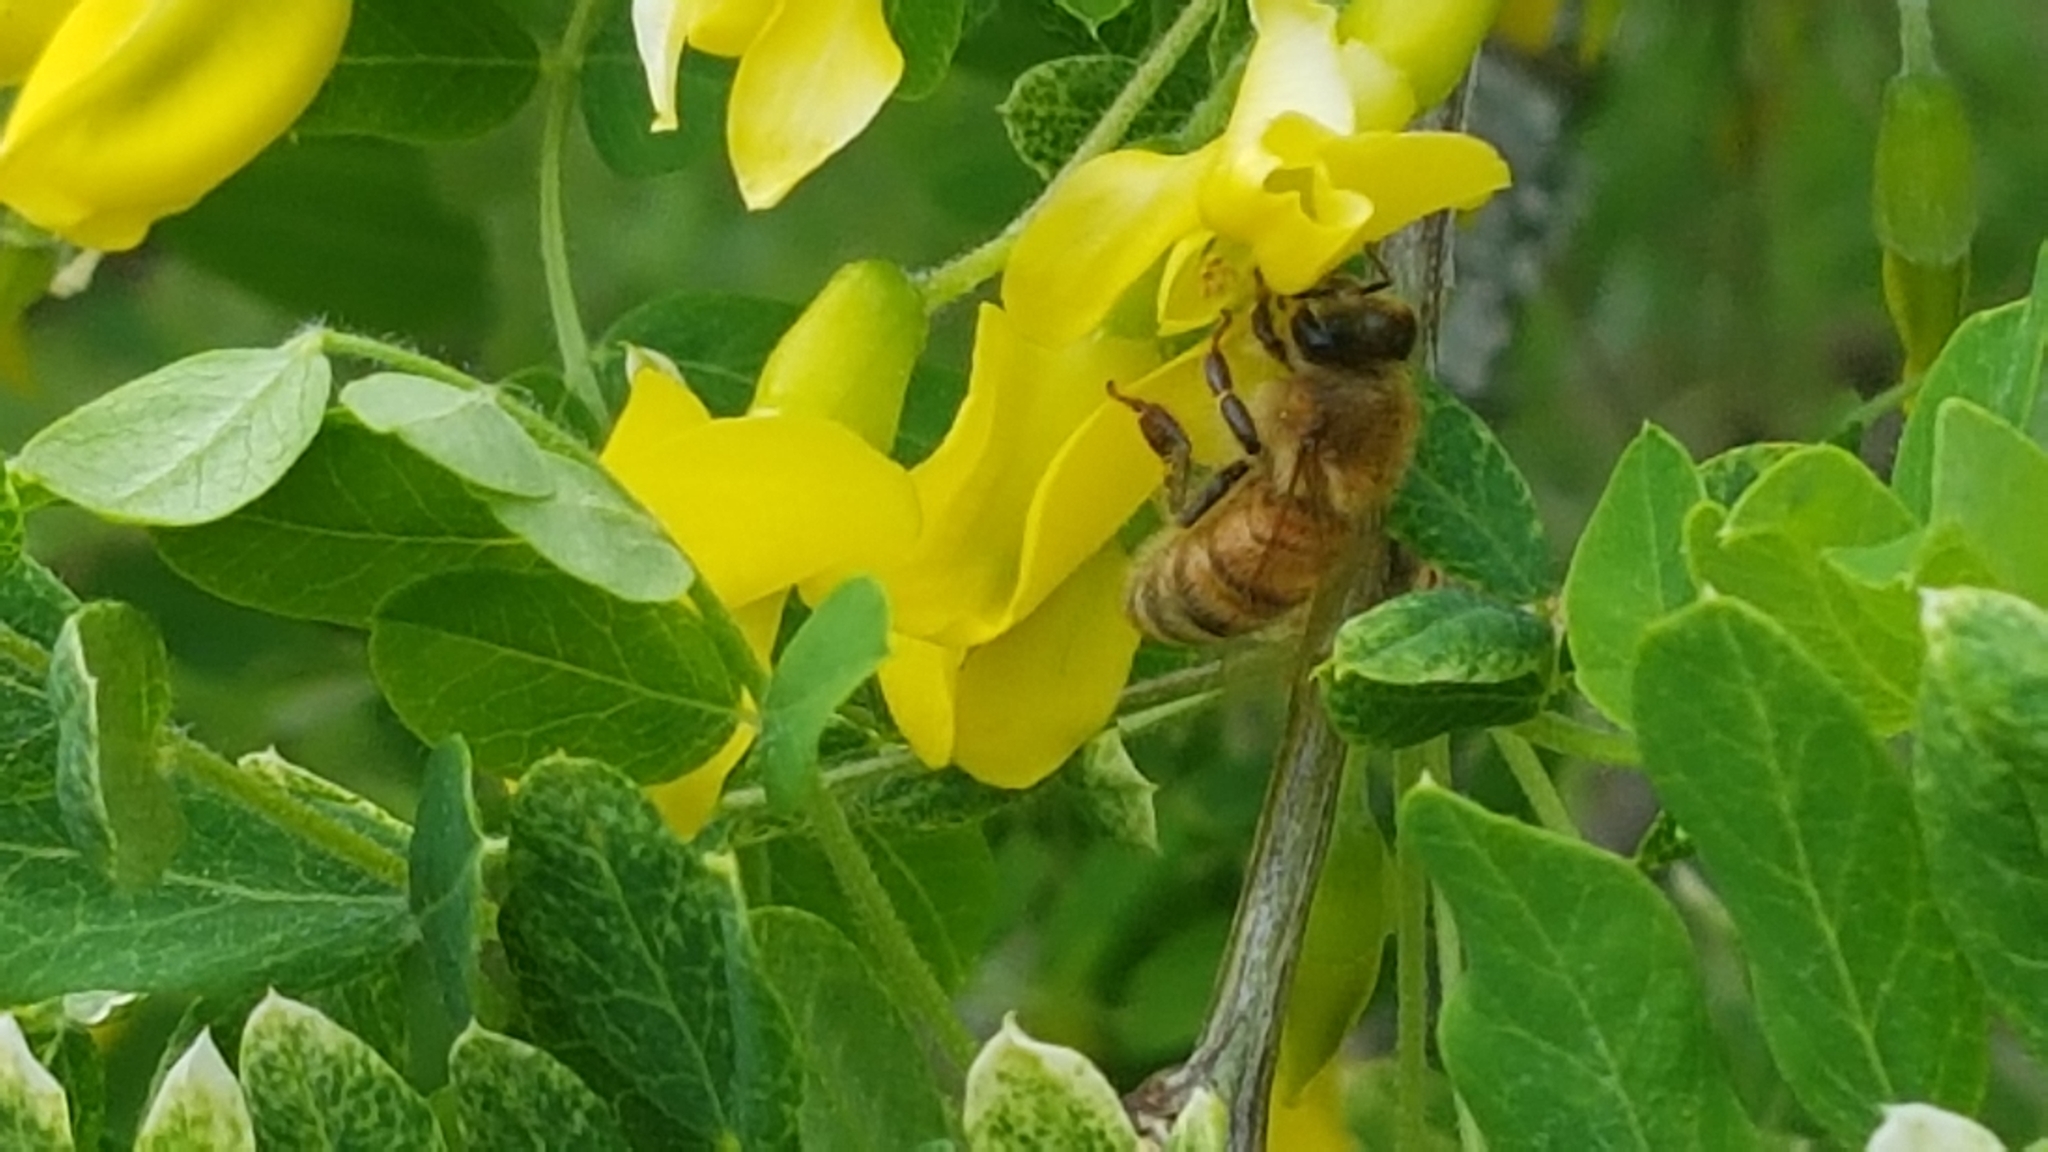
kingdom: Animalia
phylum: Arthropoda
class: Insecta
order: Hymenoptera
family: Apidae
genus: Apis
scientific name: Apis mellifera
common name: Honey bee
